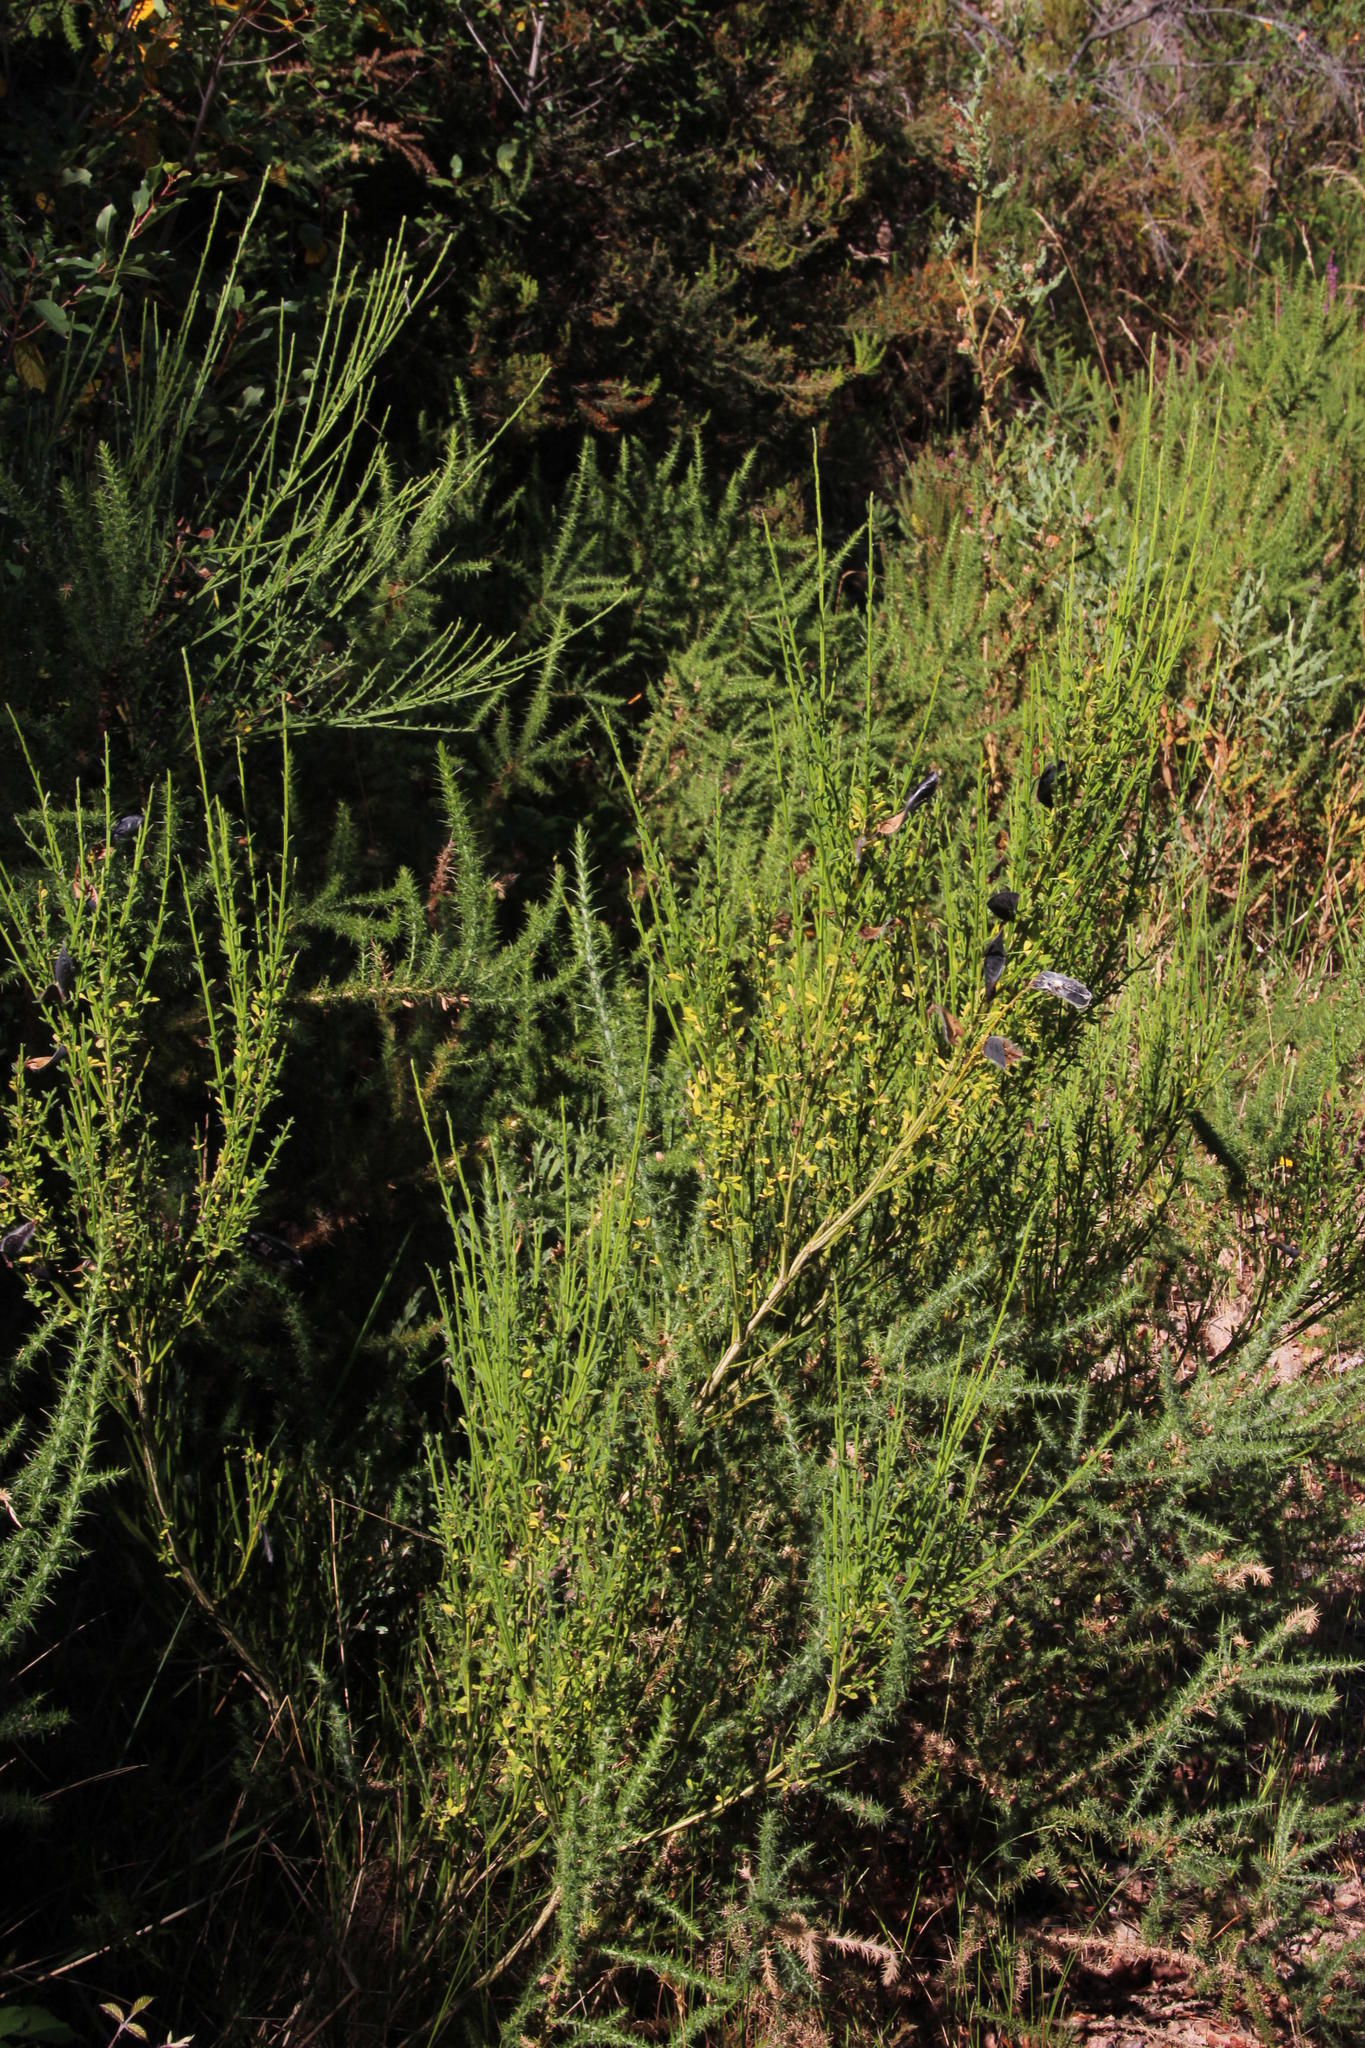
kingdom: Plantae
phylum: Tracheophyta
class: Magnoliopsida
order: Fabales
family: Fabaceae
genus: Cytisus
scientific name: Cytisus scoparius
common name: Scotch broom
